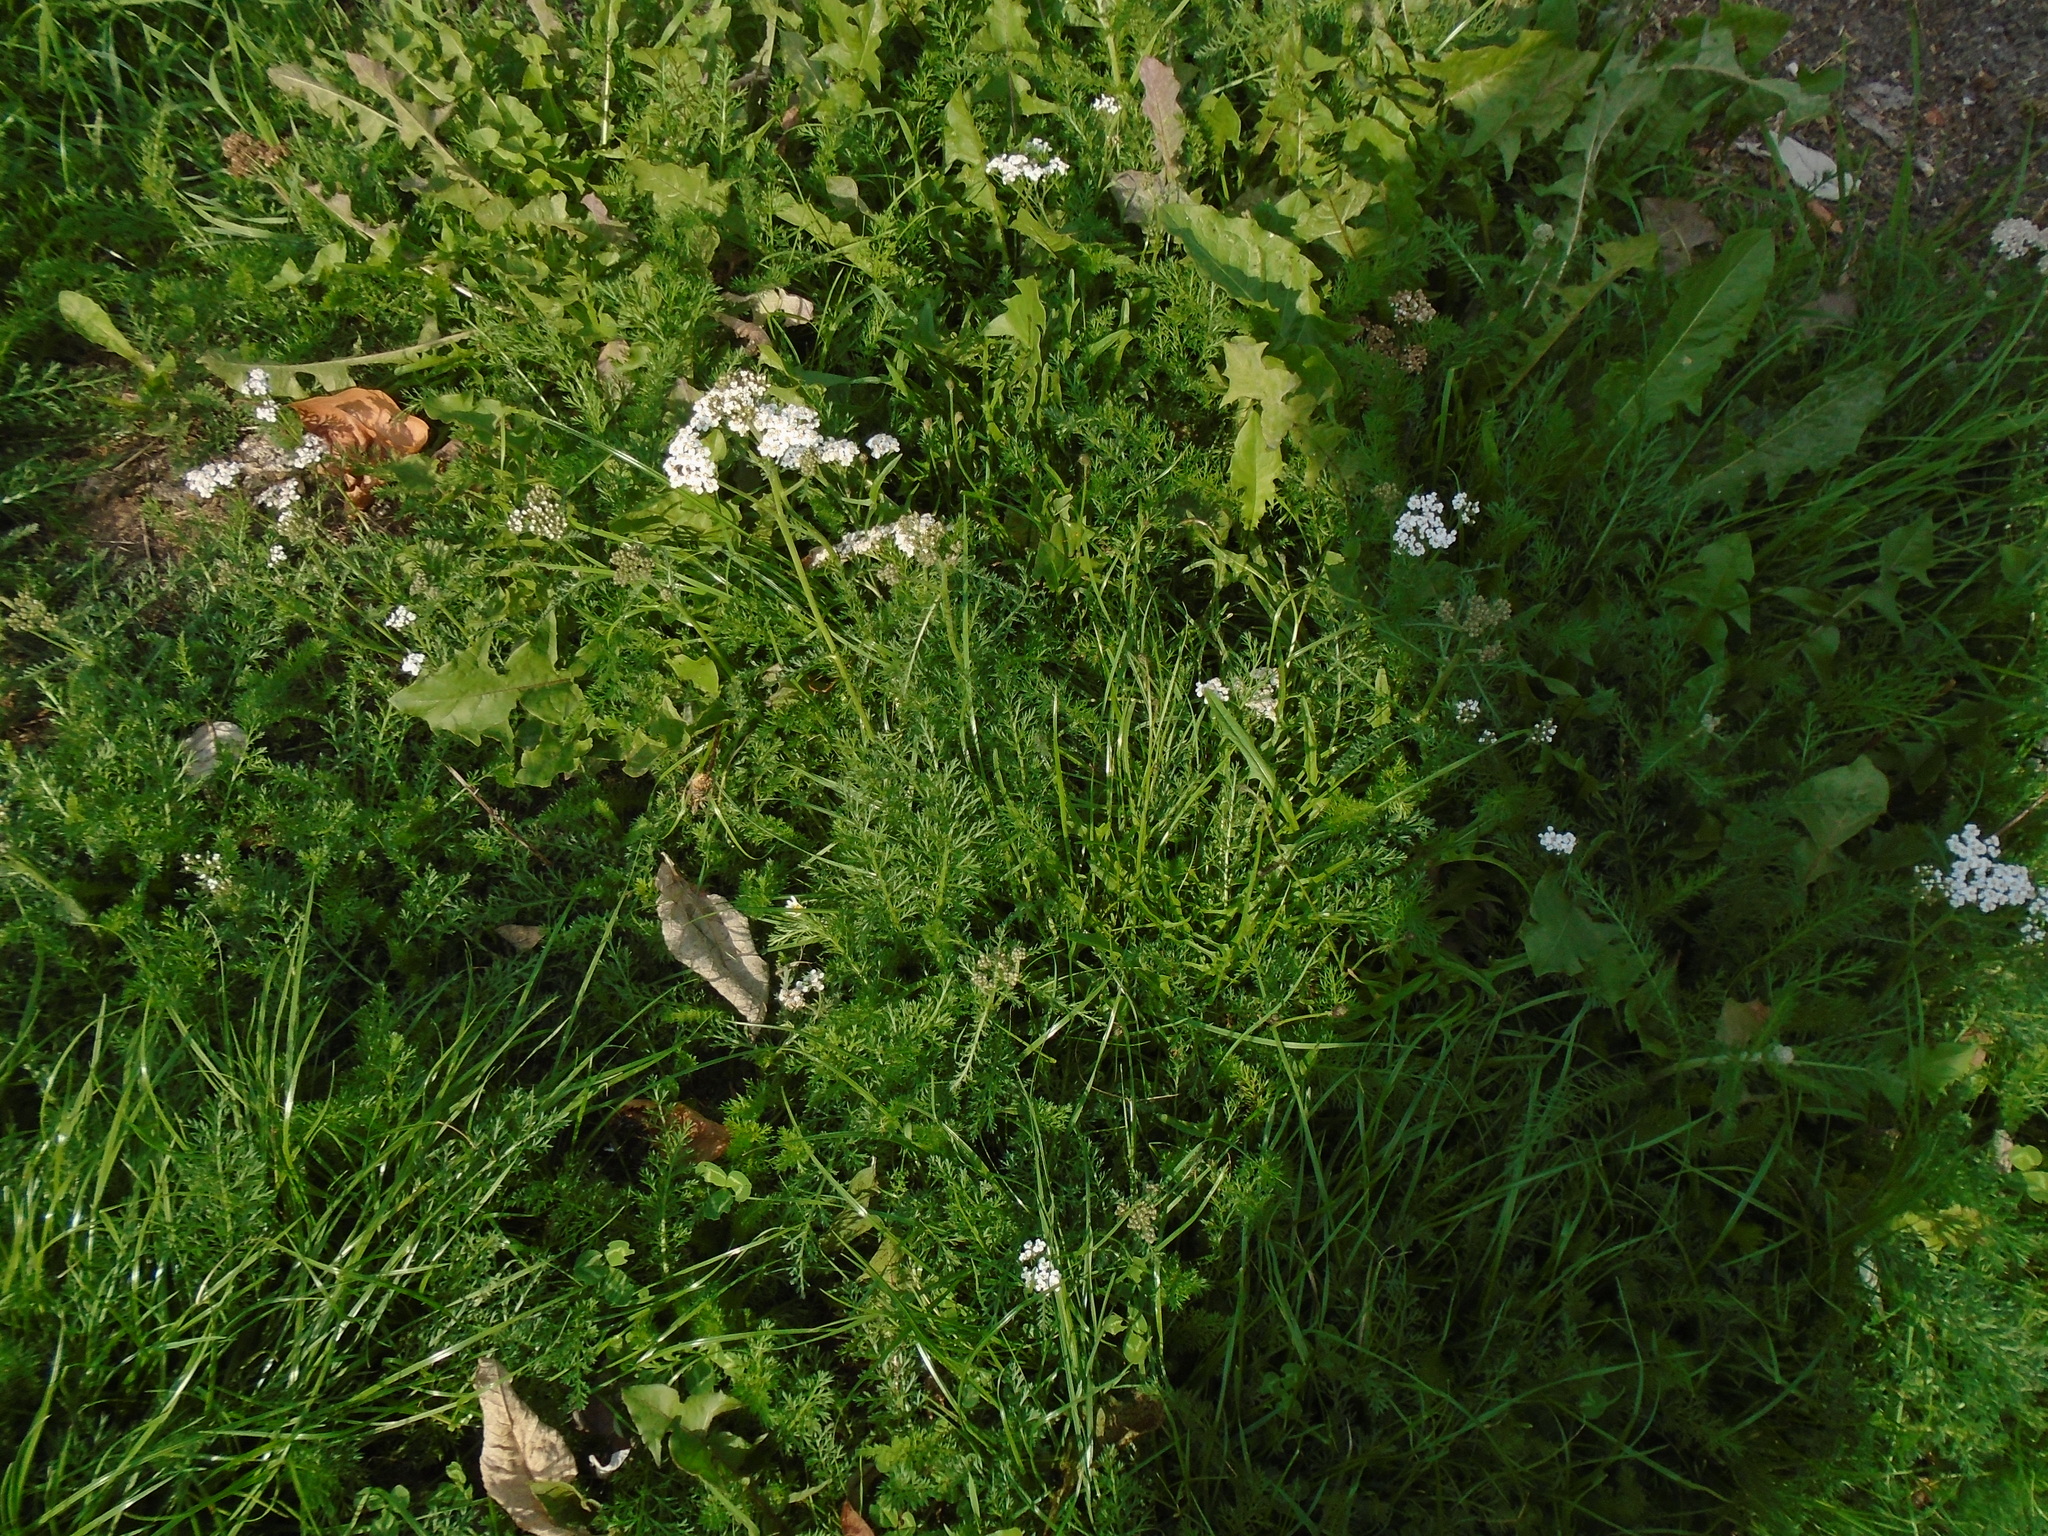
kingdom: Plantae
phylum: Tracheophyta
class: Magnoliopsida
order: Asterales
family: Asteraceae
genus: Achillea
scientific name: Achillea millefolium
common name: Yarrow
